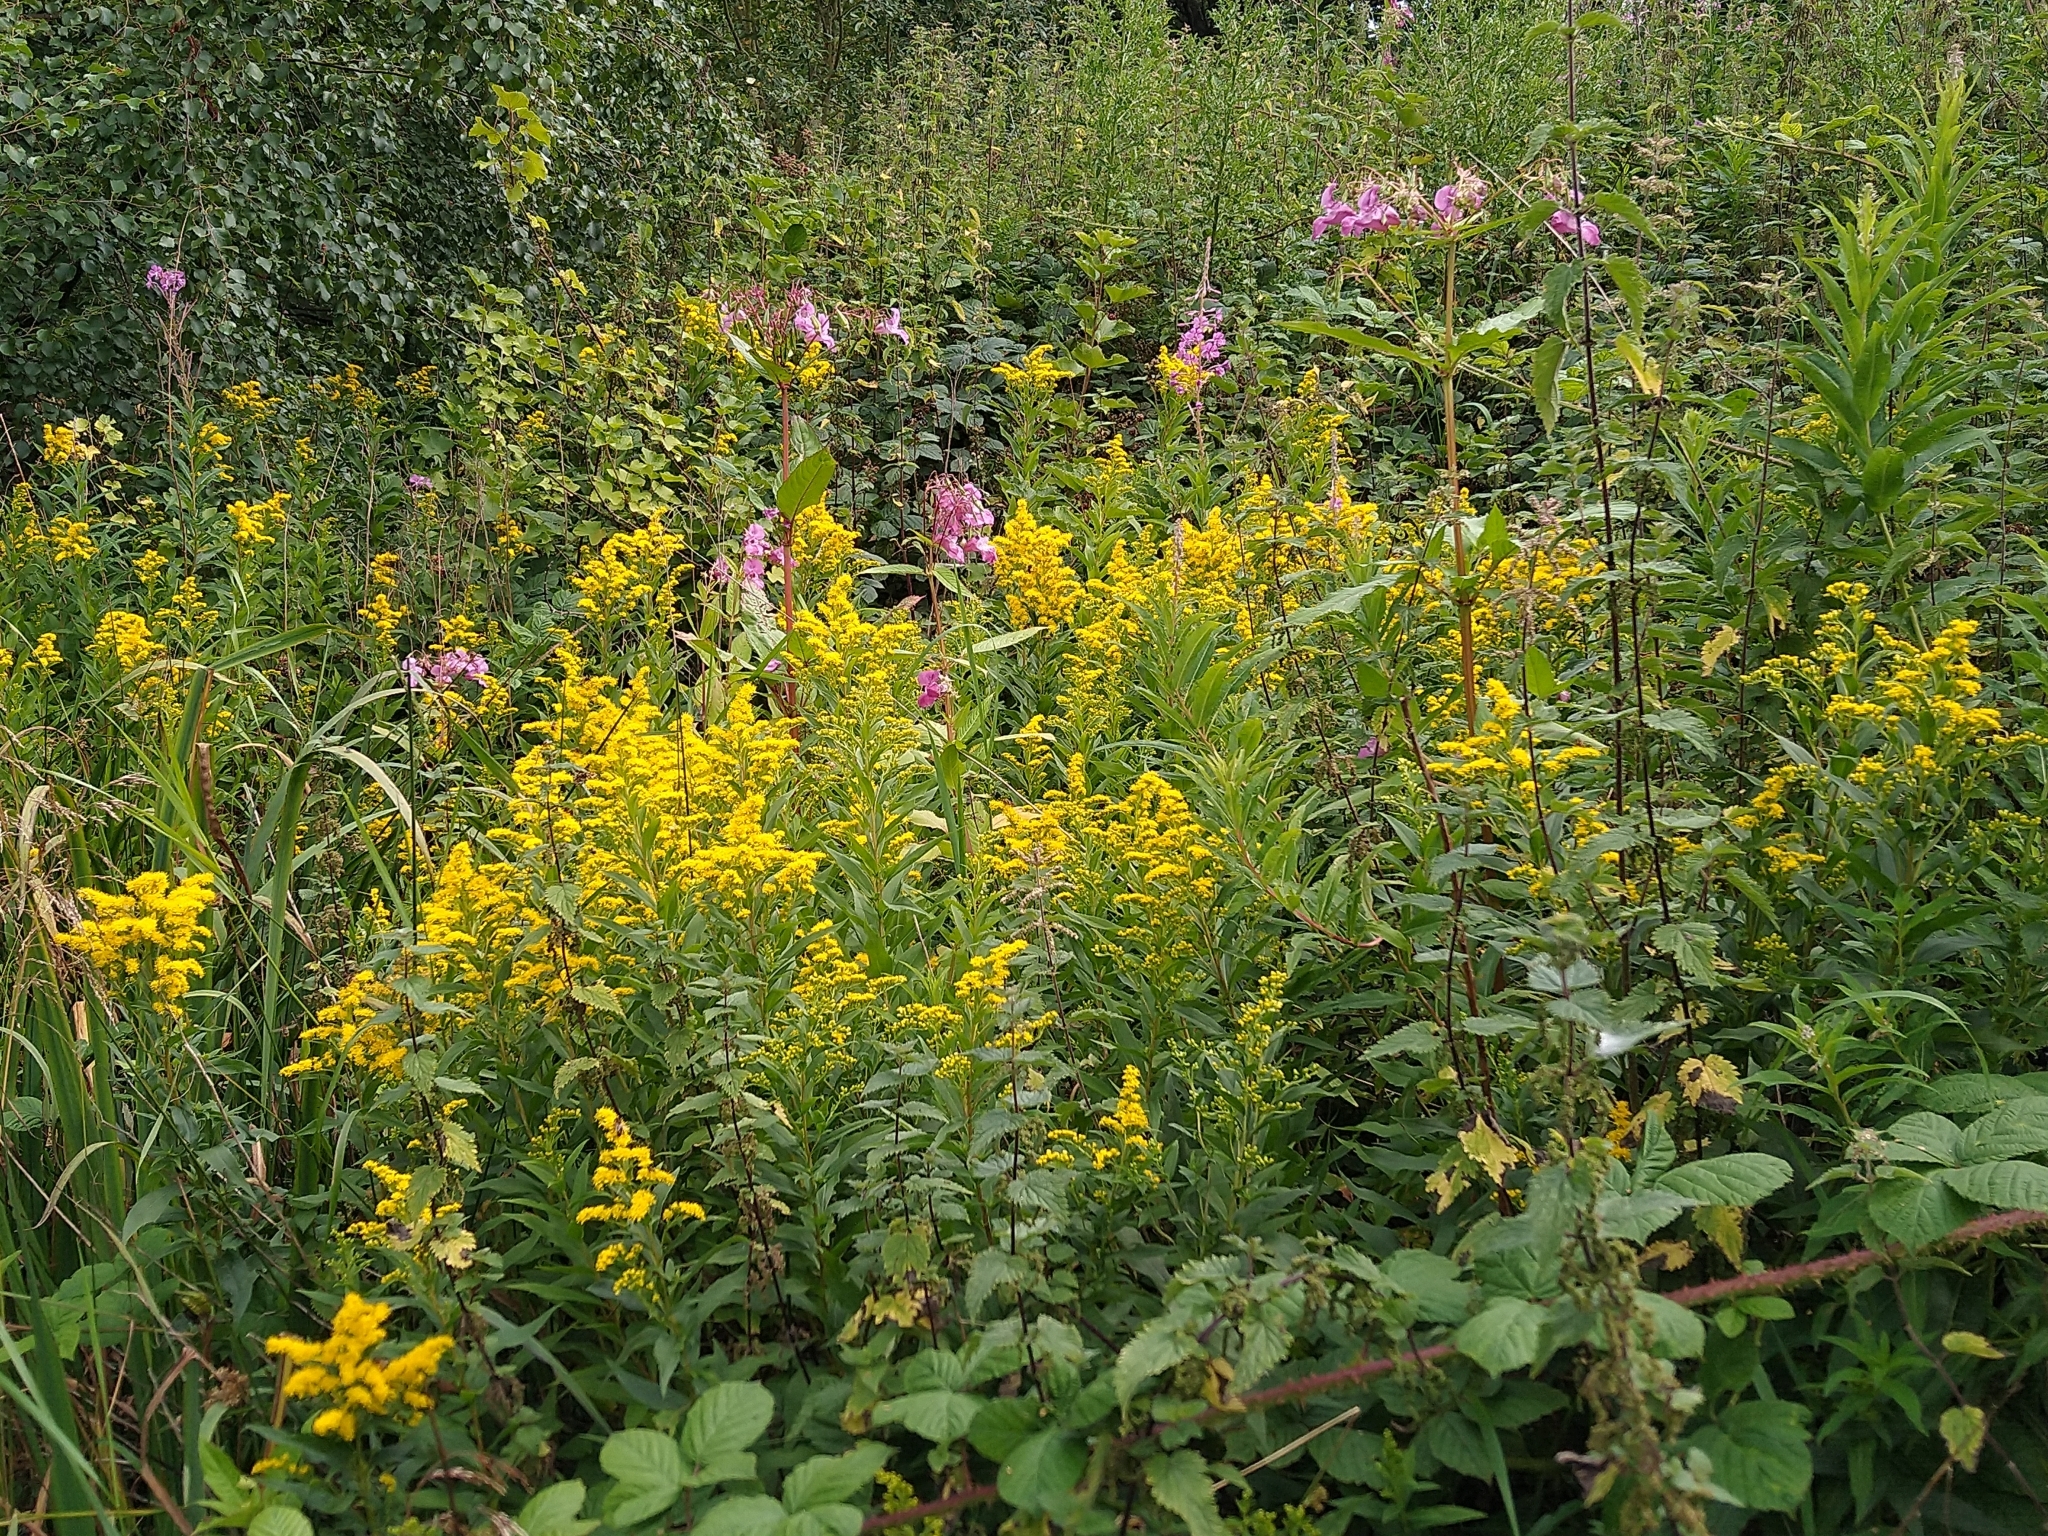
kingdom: Plantae
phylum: Tracheophyta
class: Magnoliopsida
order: Asterales
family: Asteraceae
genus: Solidago
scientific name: Solidago gigantea
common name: Giant goldenrod
